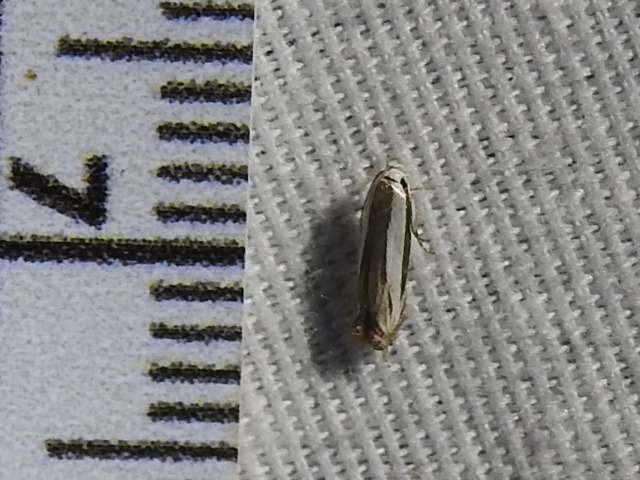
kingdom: Animalia
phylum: Arthropoda
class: Insecta
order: Lepidoptera
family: Gelechiidae
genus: Polyhymno
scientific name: Polyhymno acaciella
